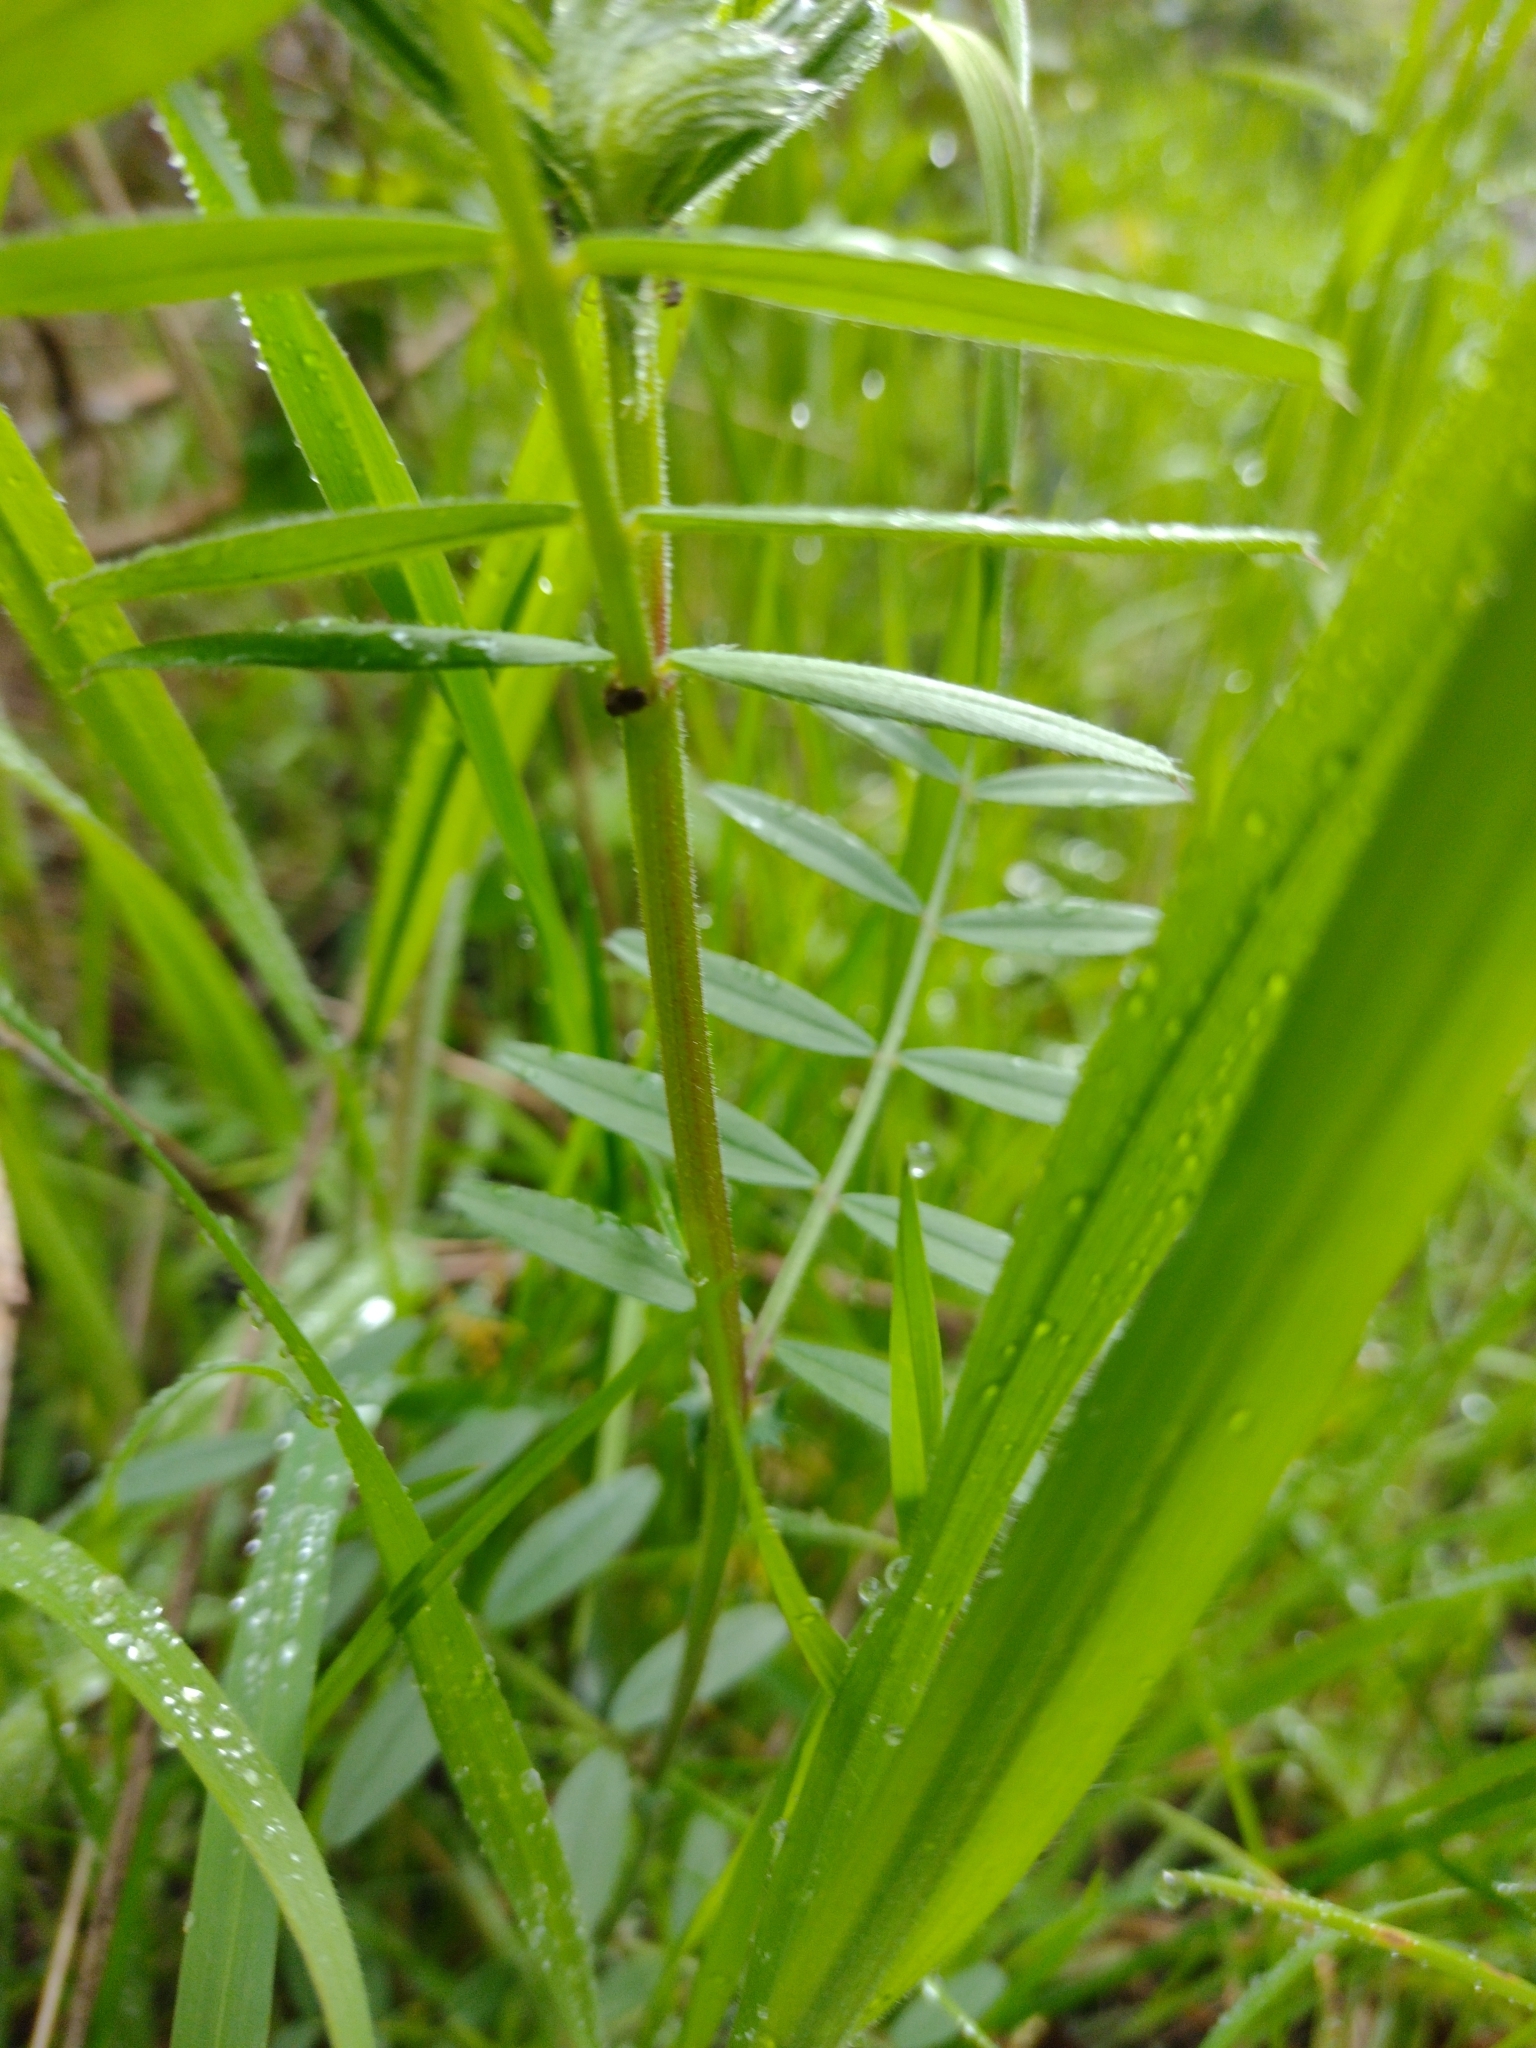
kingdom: Animalia
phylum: Arthropoda
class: Insecta
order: Hymenoptera
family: Formicidae
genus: Lasius
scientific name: Lasius niger
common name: Small black ant
